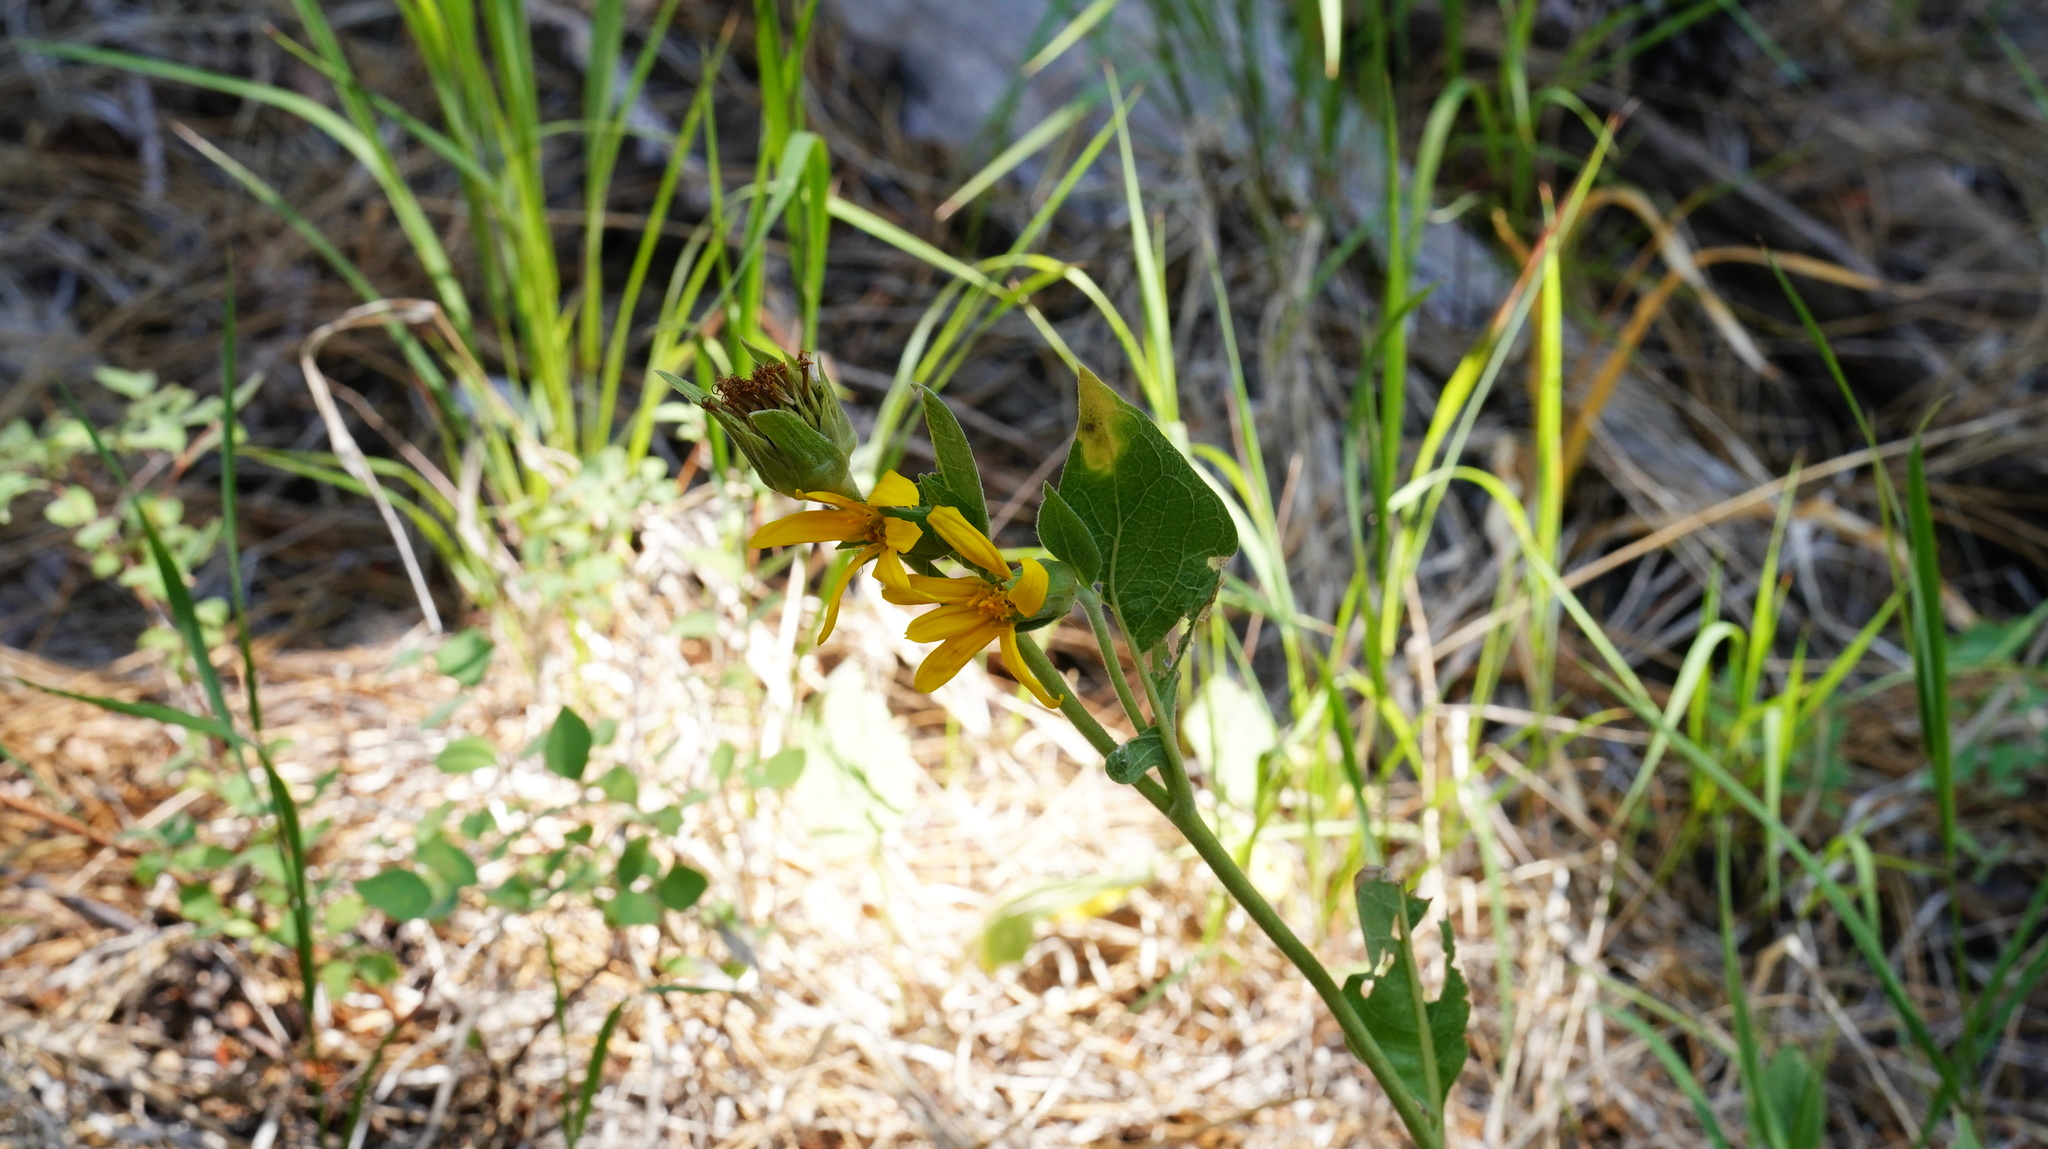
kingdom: Plantae
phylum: Tracheophyta
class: Magnoliopsida
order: Asterales
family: Asteraceae
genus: Wyethia
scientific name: Wyethia mollis
